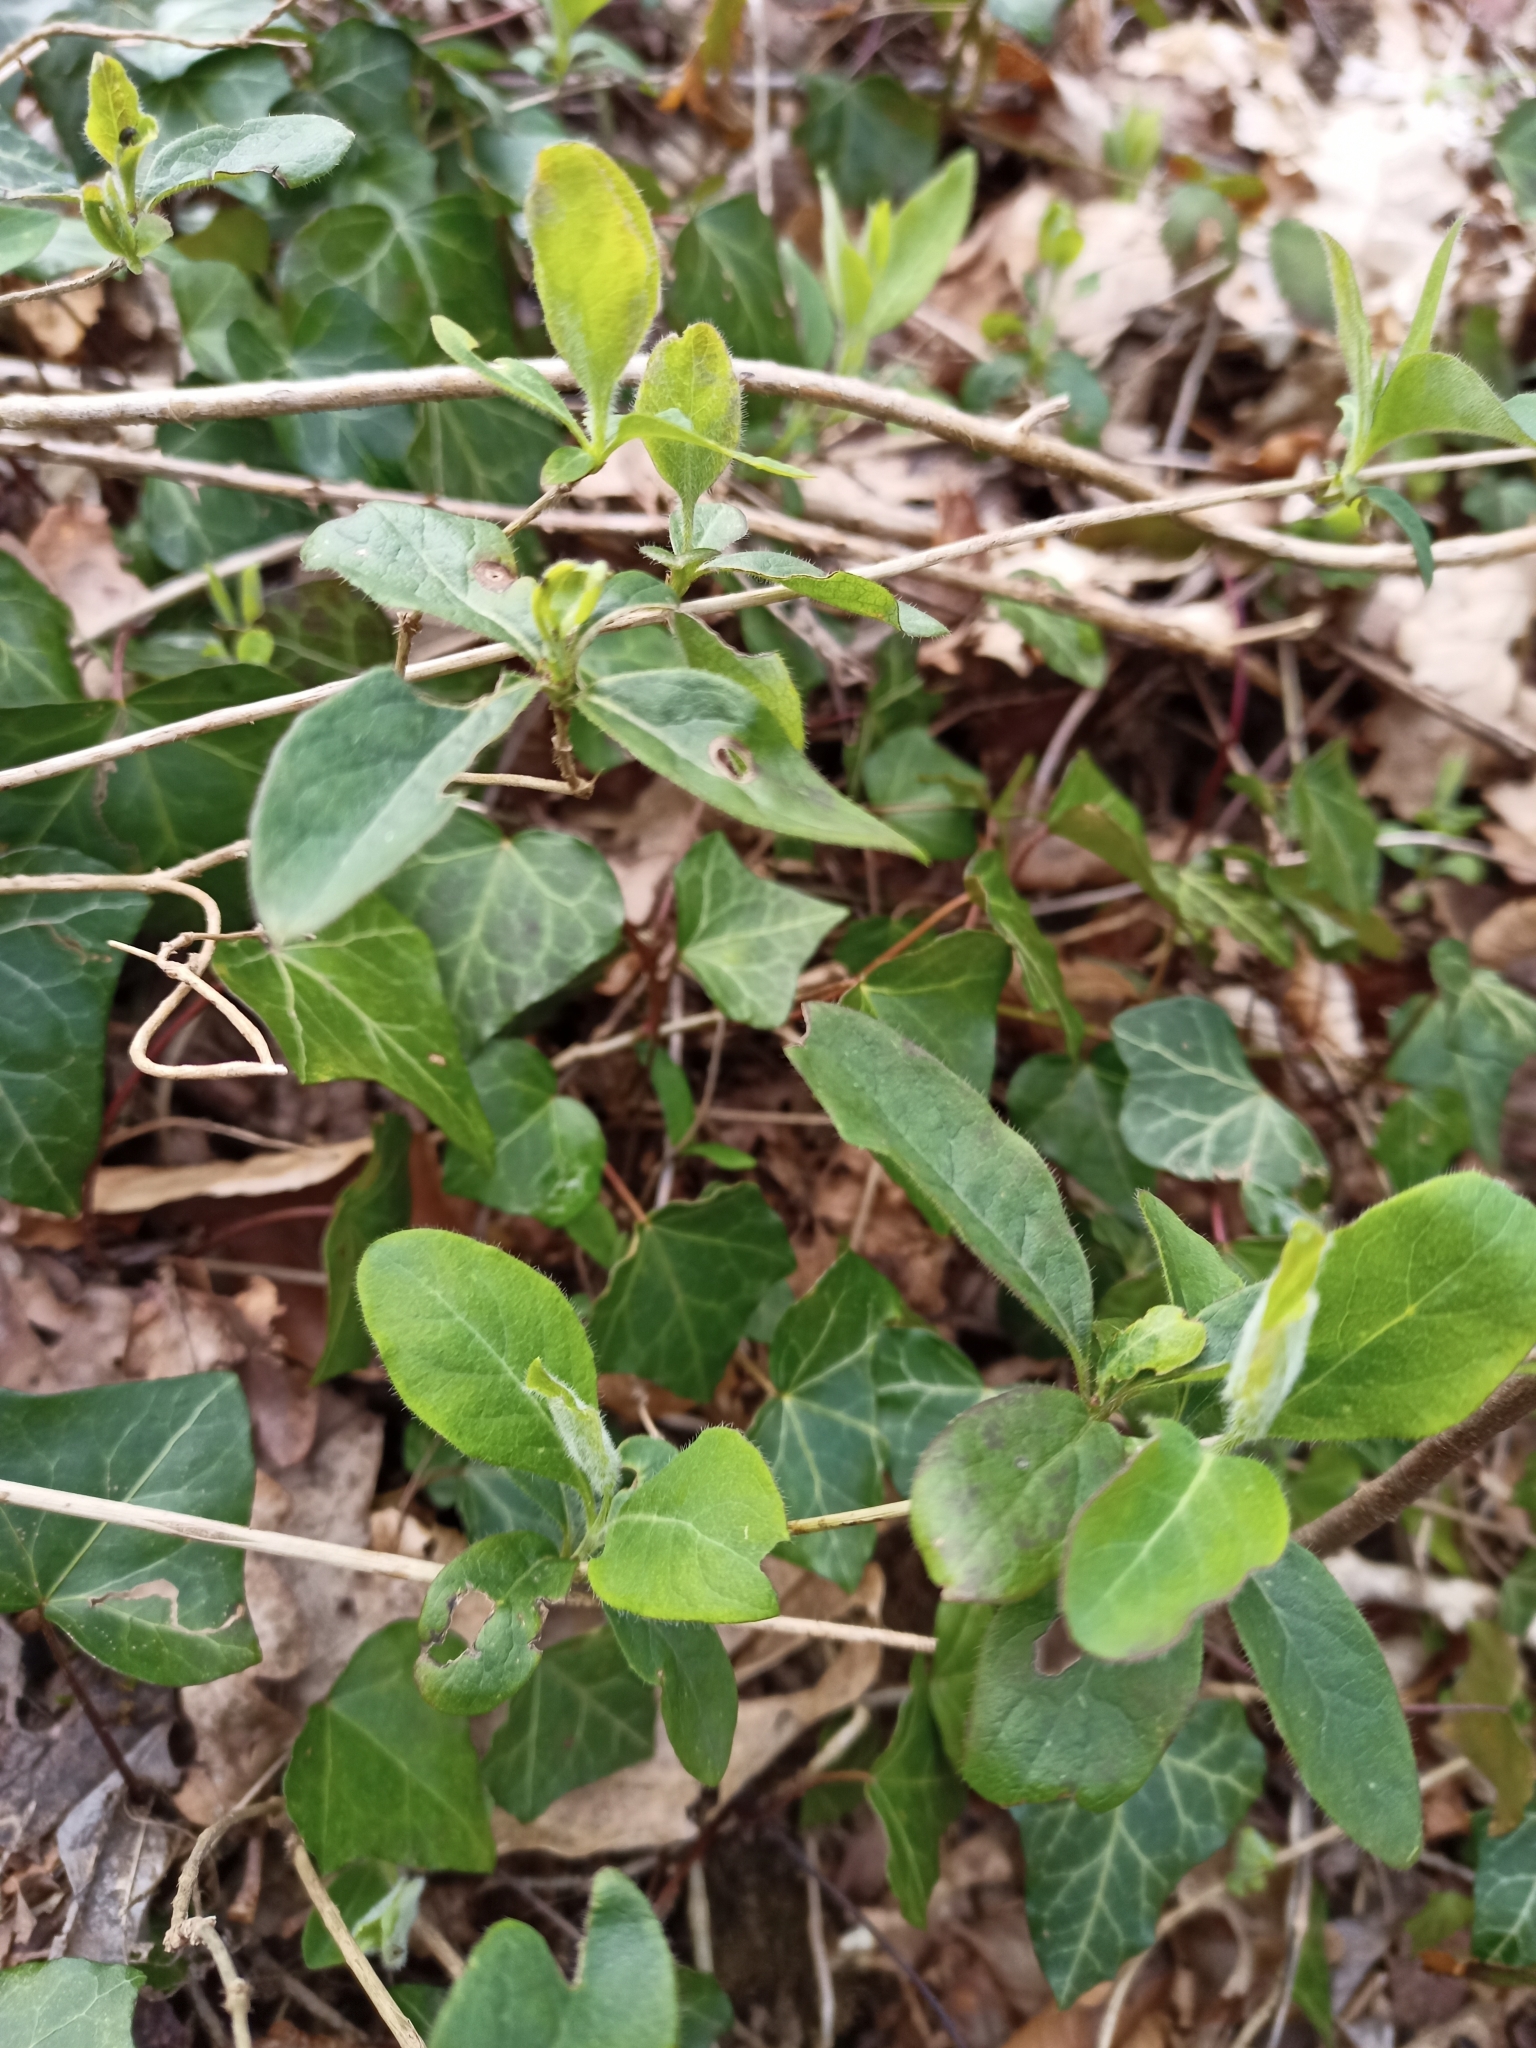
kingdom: Plantae
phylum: Tracheophyta
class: Magnoliopsida
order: Dipsacales
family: Caprifoliaceae
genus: Lonicera
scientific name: Lonicera periclymenum
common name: European honeysuckle
